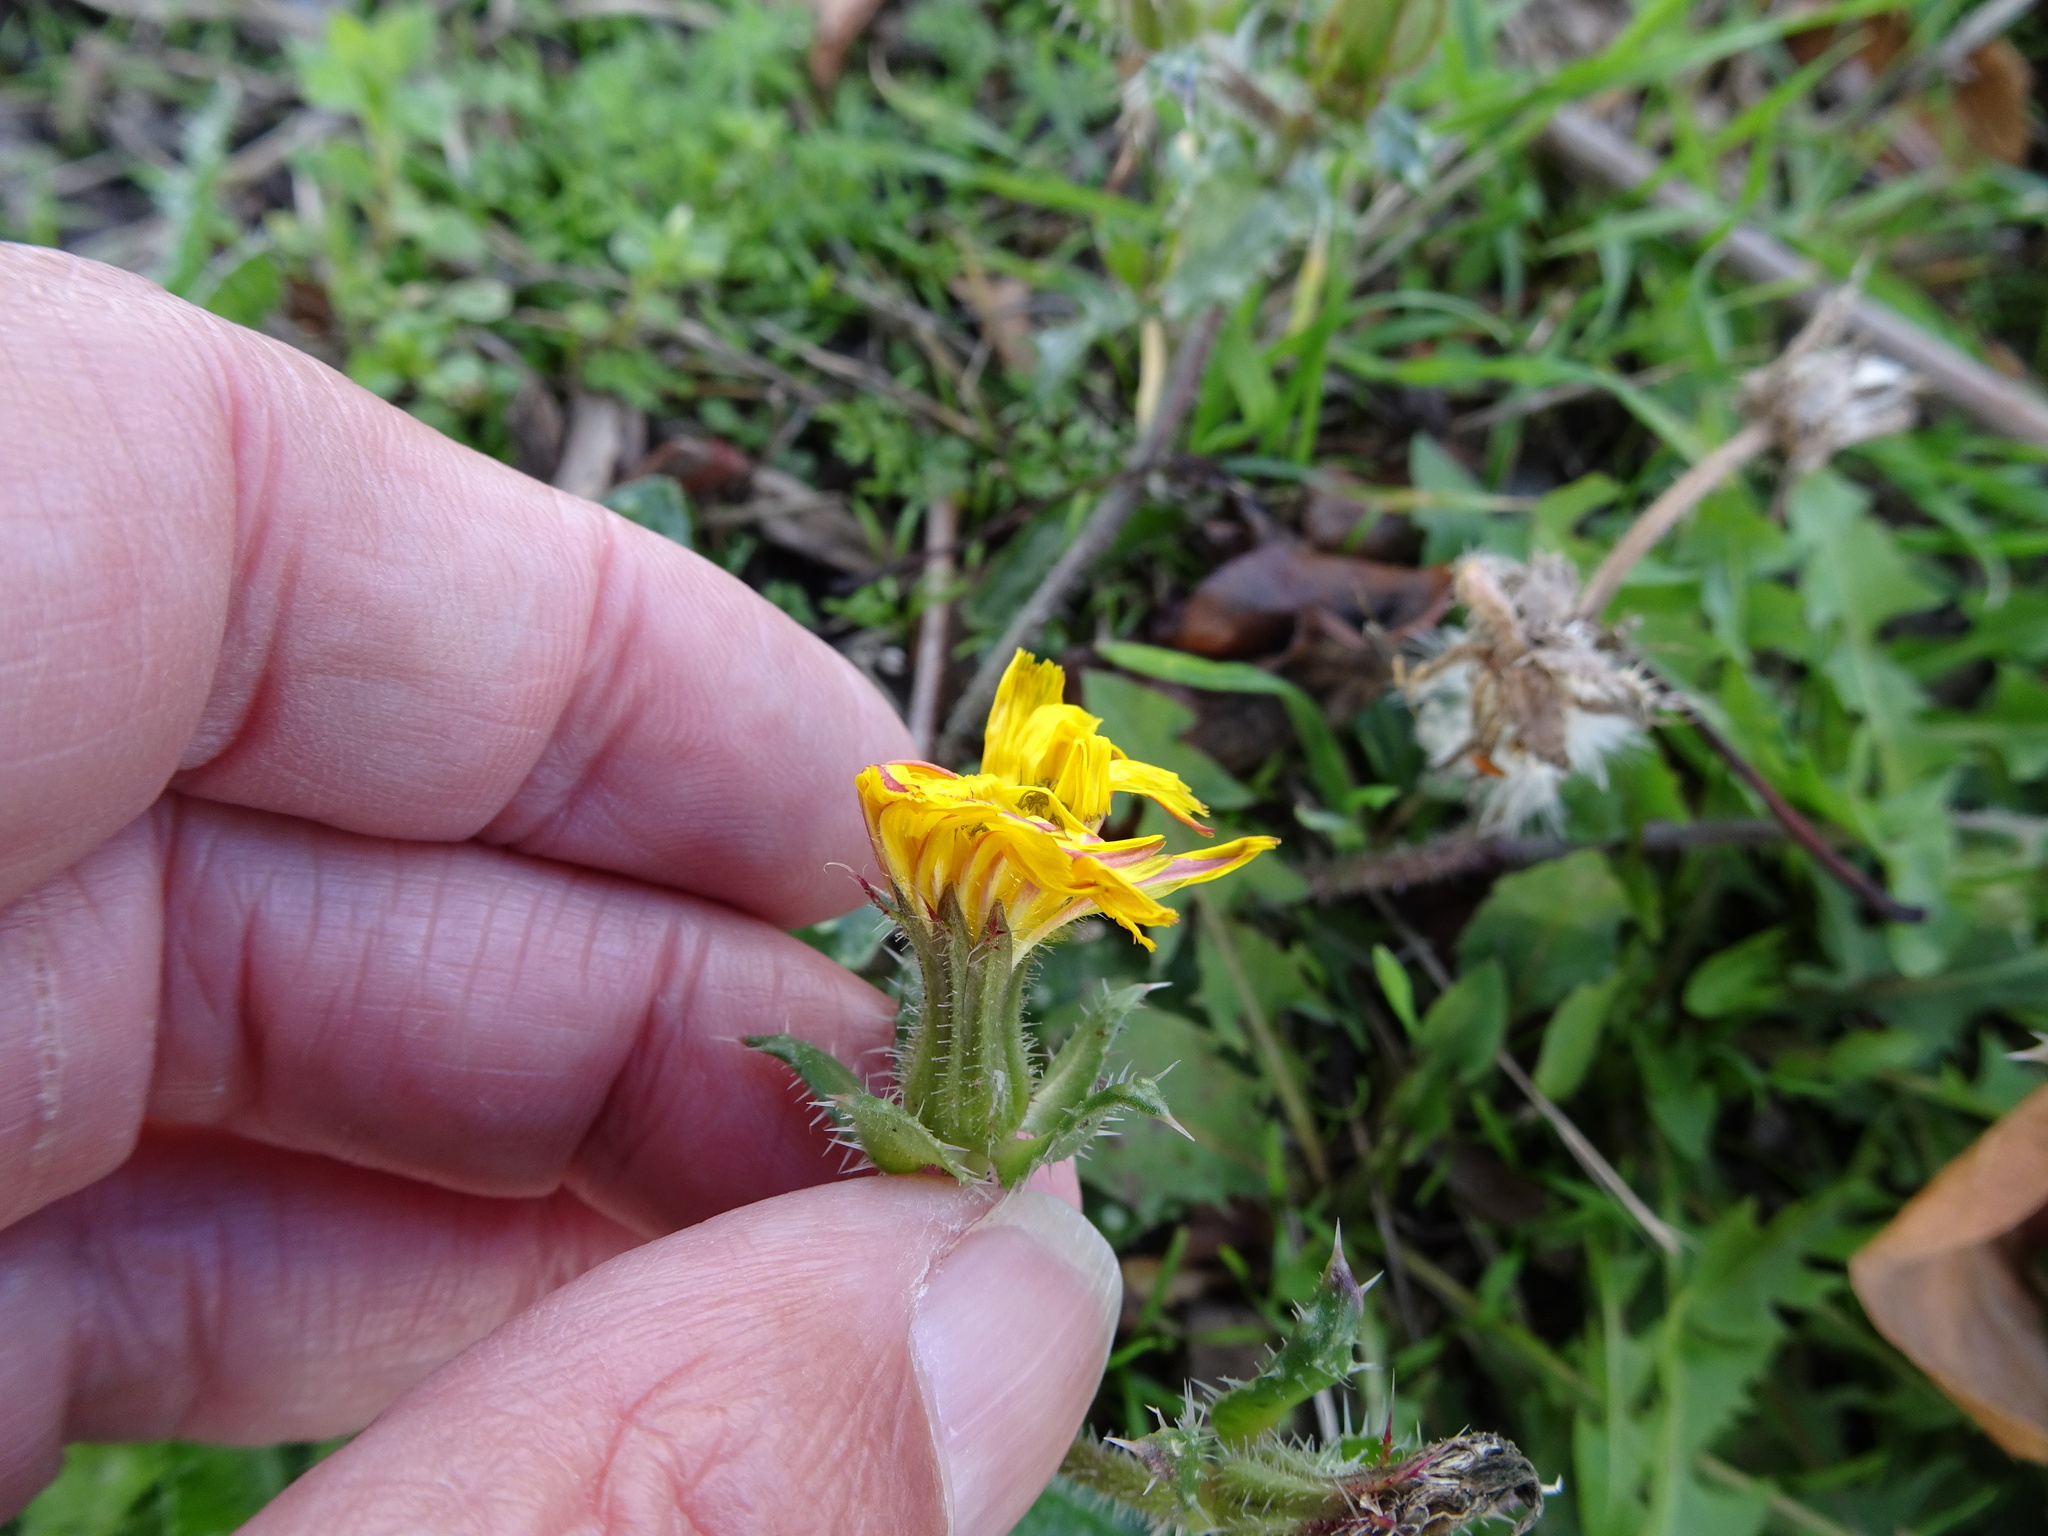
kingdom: Plantae
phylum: Tracheophyta
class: Magnoliopsida
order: Asterales
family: Asteraceae
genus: Helminthotheca
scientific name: Helminthotheca echioides
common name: Ox-tongue
